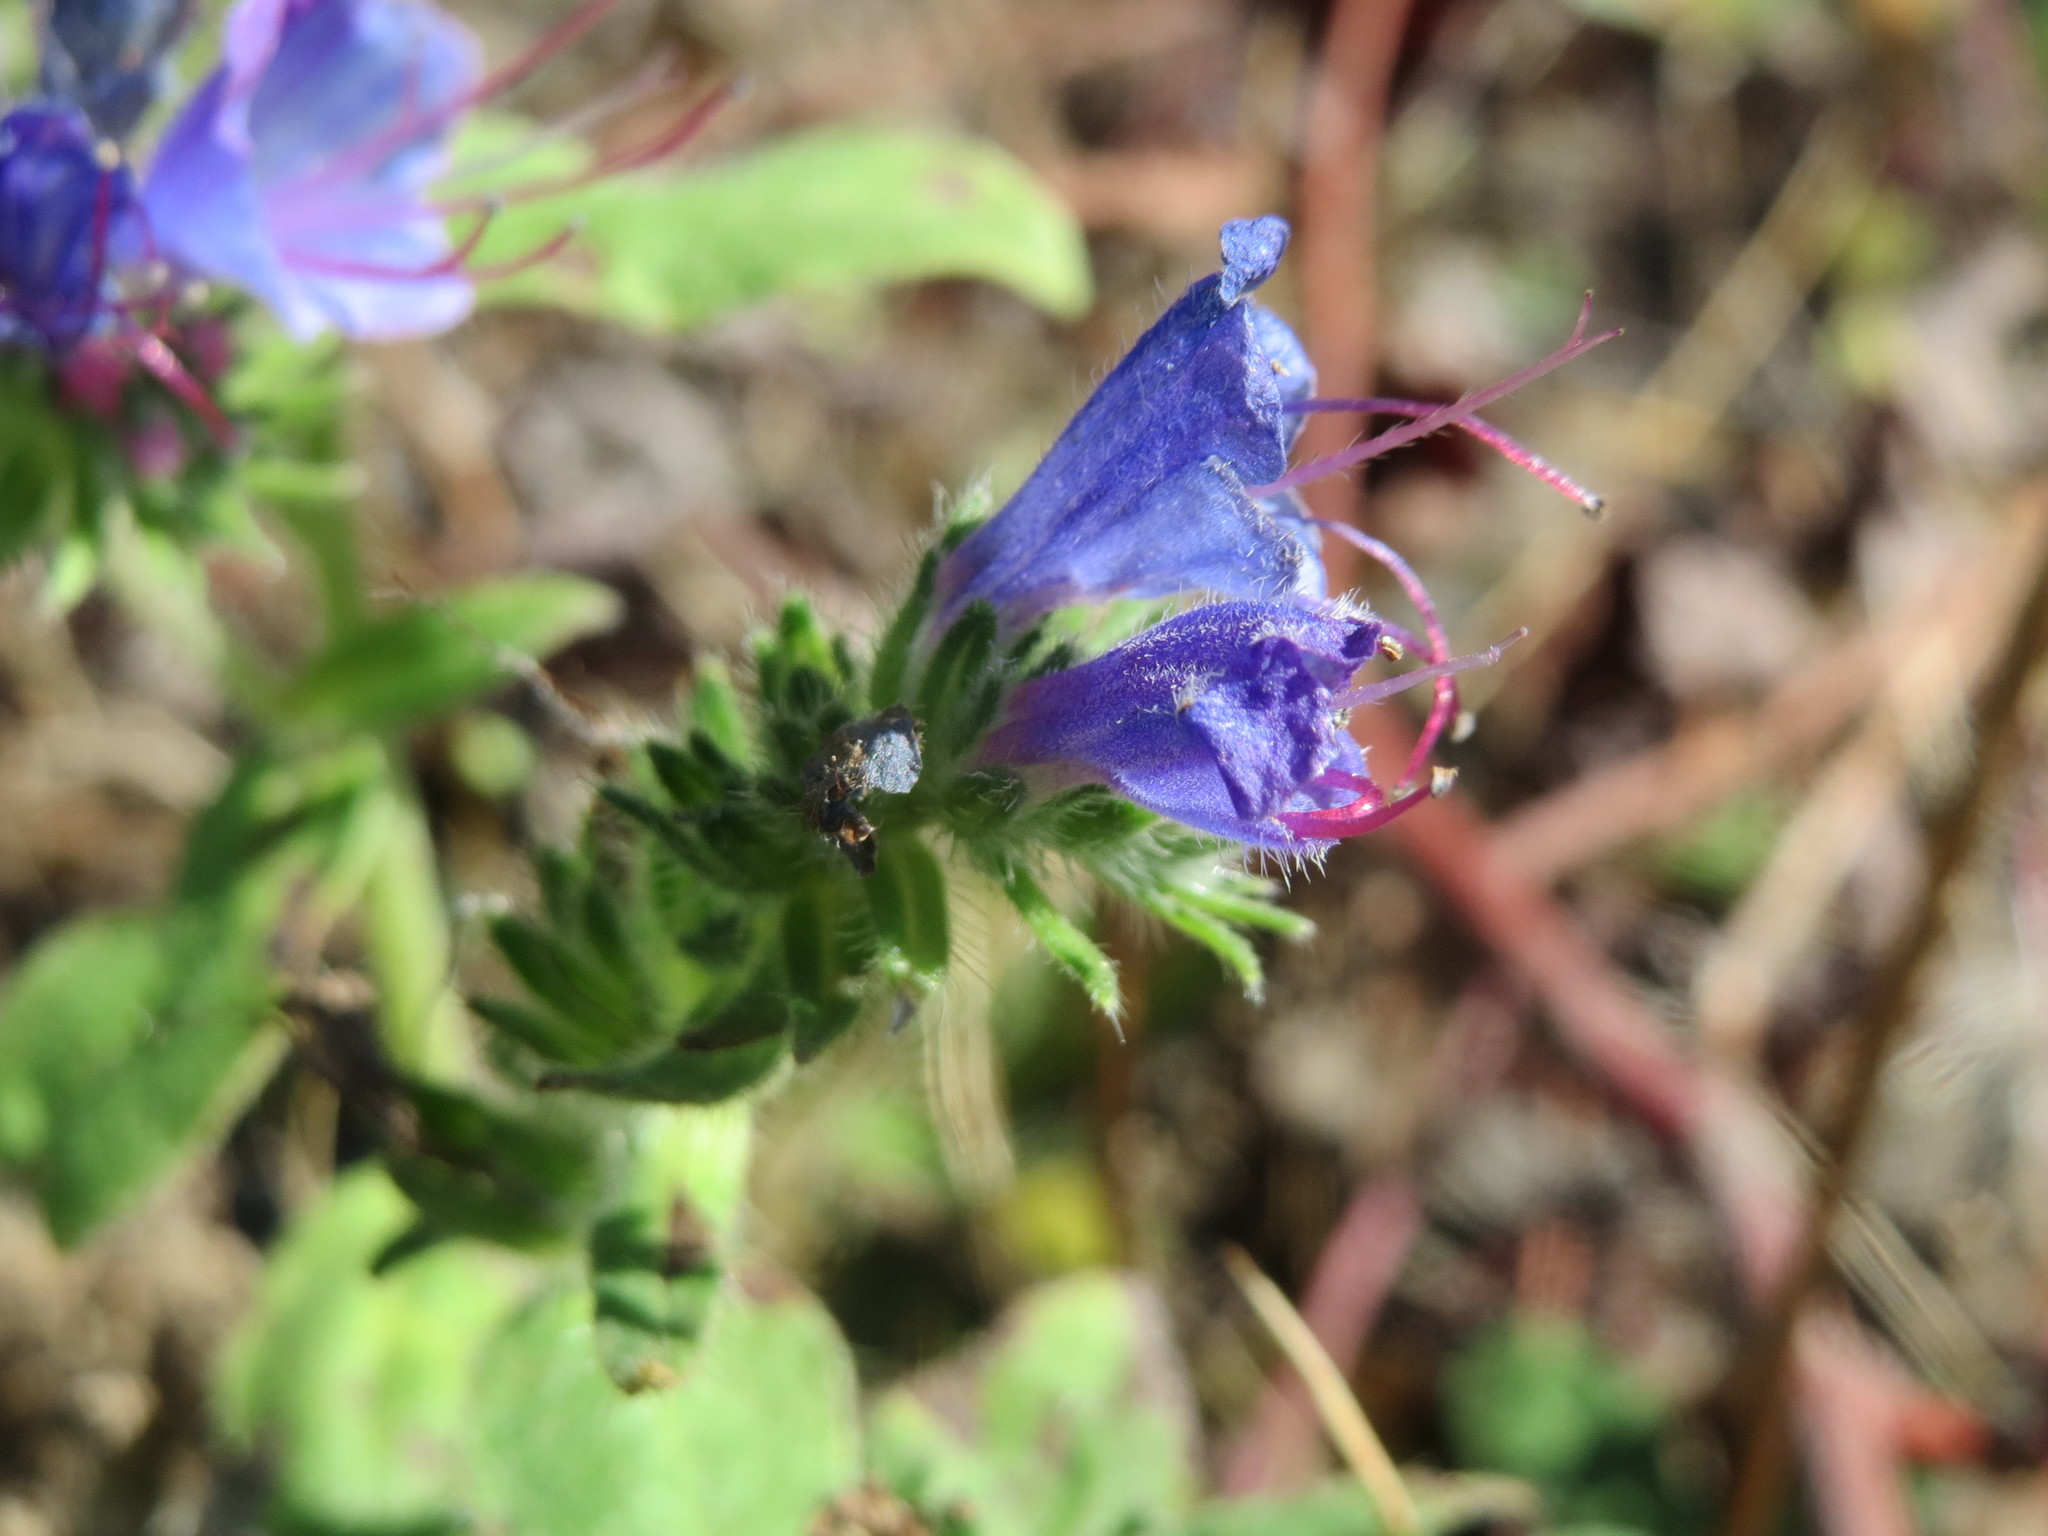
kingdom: Plantae
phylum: Tracheophyta
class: Magnoliopsida
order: Boraginales
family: Boraginaceae
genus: Echium
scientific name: Echium vulgare
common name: Common viper's bugloss
